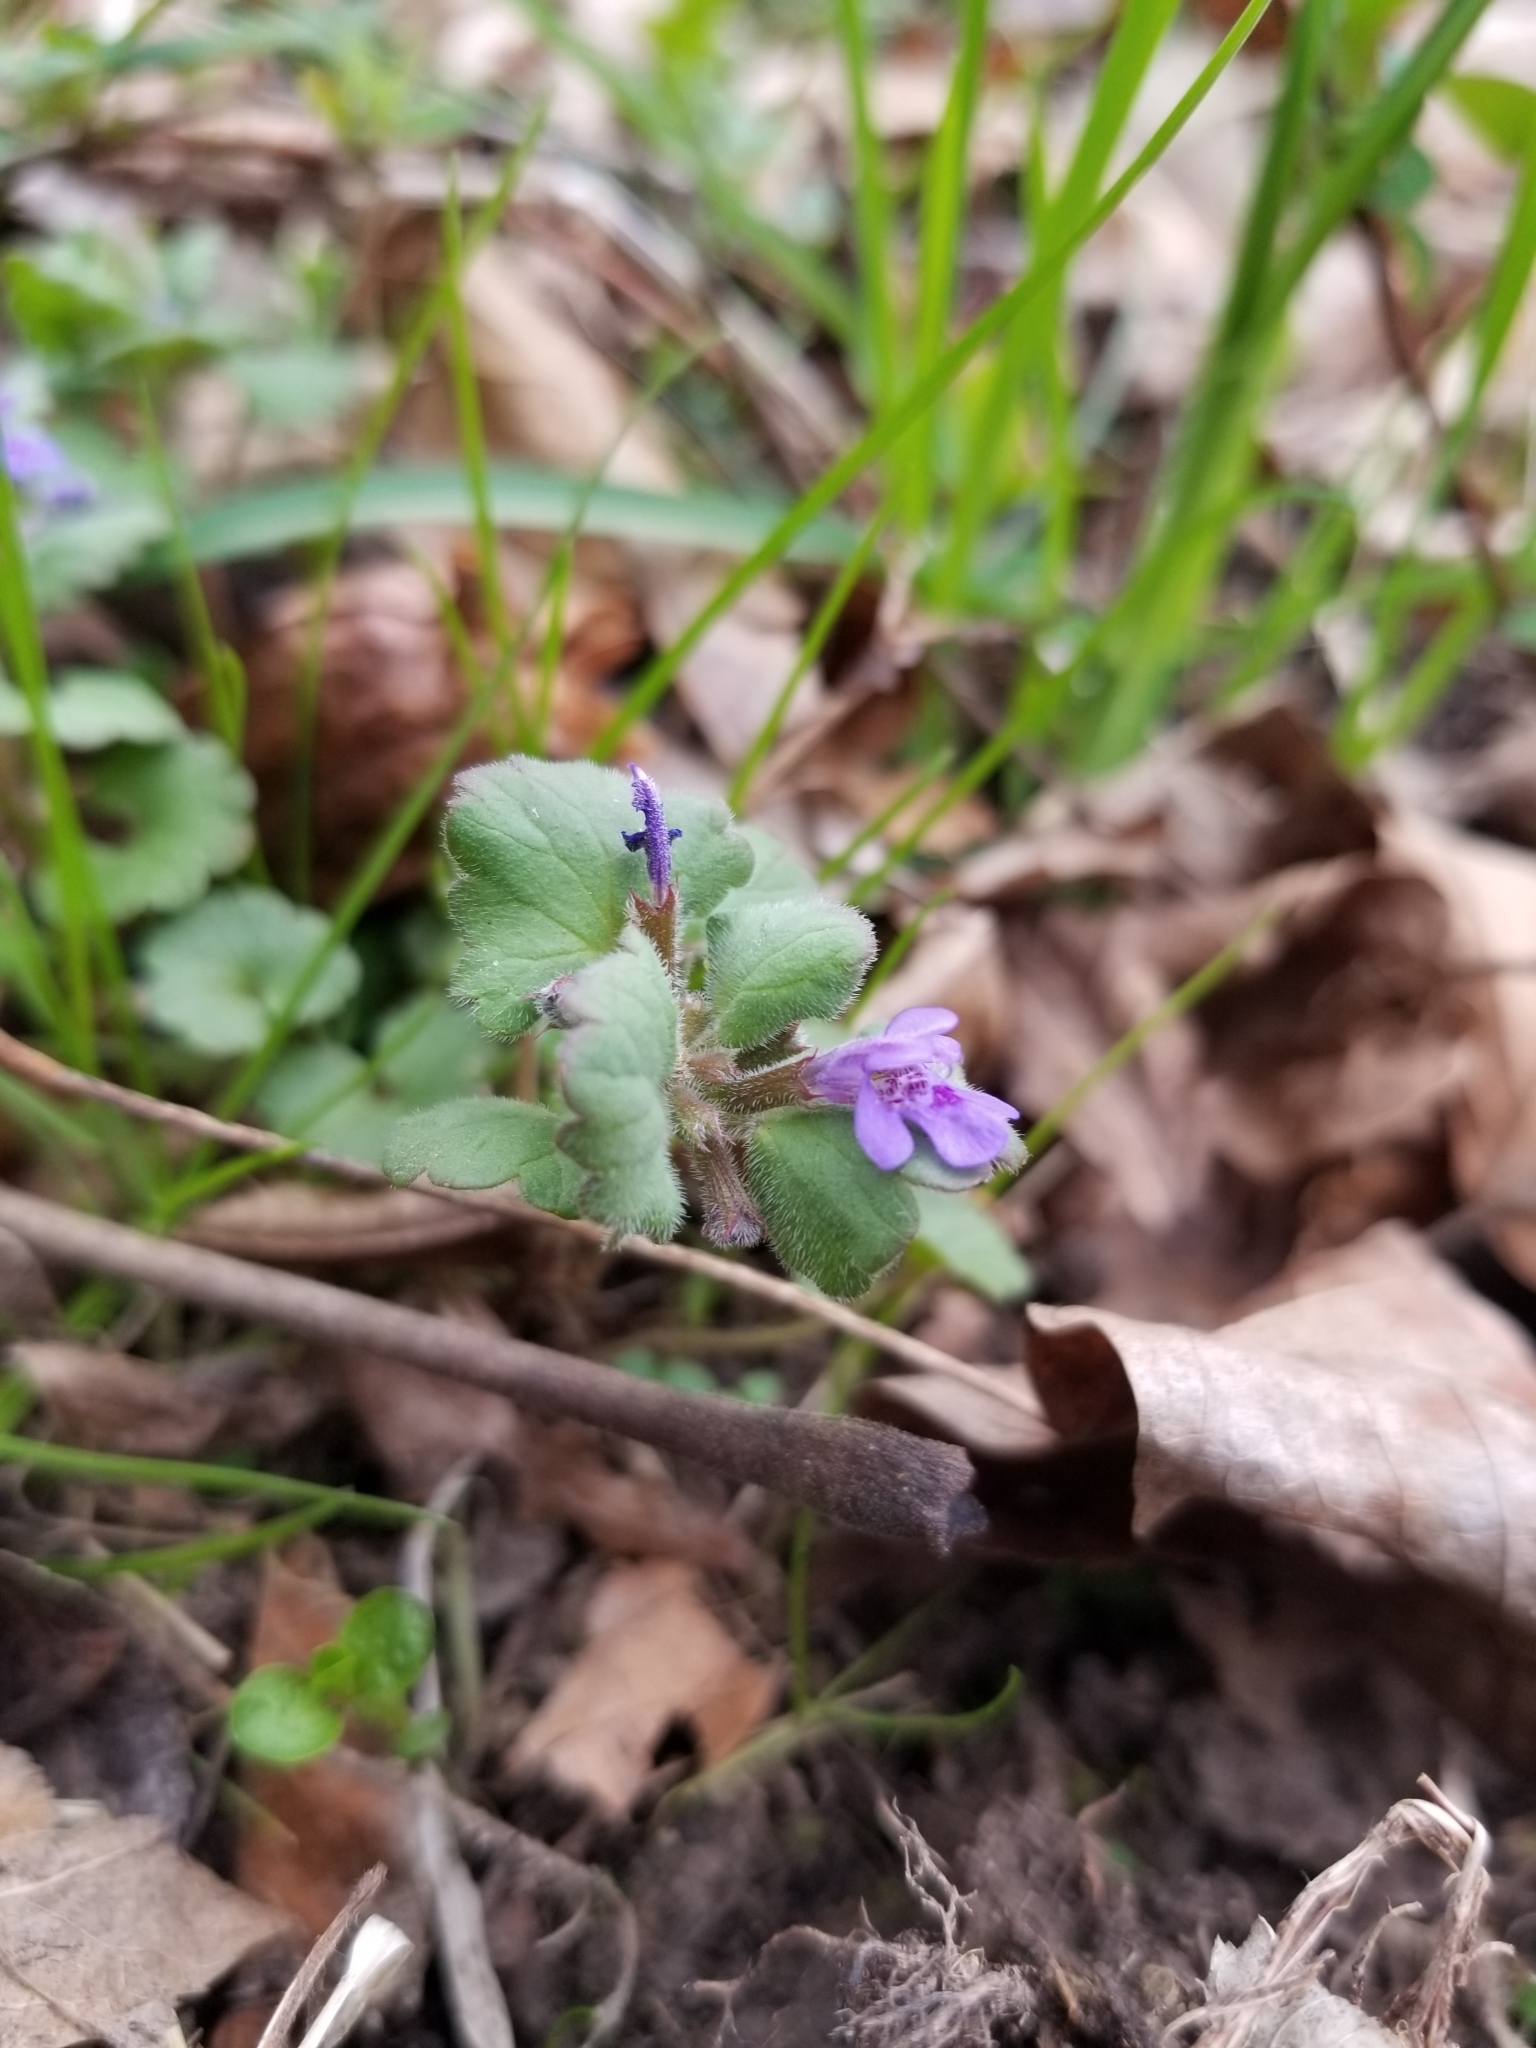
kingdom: Plantae
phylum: Tracheophyta
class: Magnoliopsida
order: Lamiales
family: Lamiaceae
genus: Glechoma
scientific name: Glechoma hederacea
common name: Ground ivy
